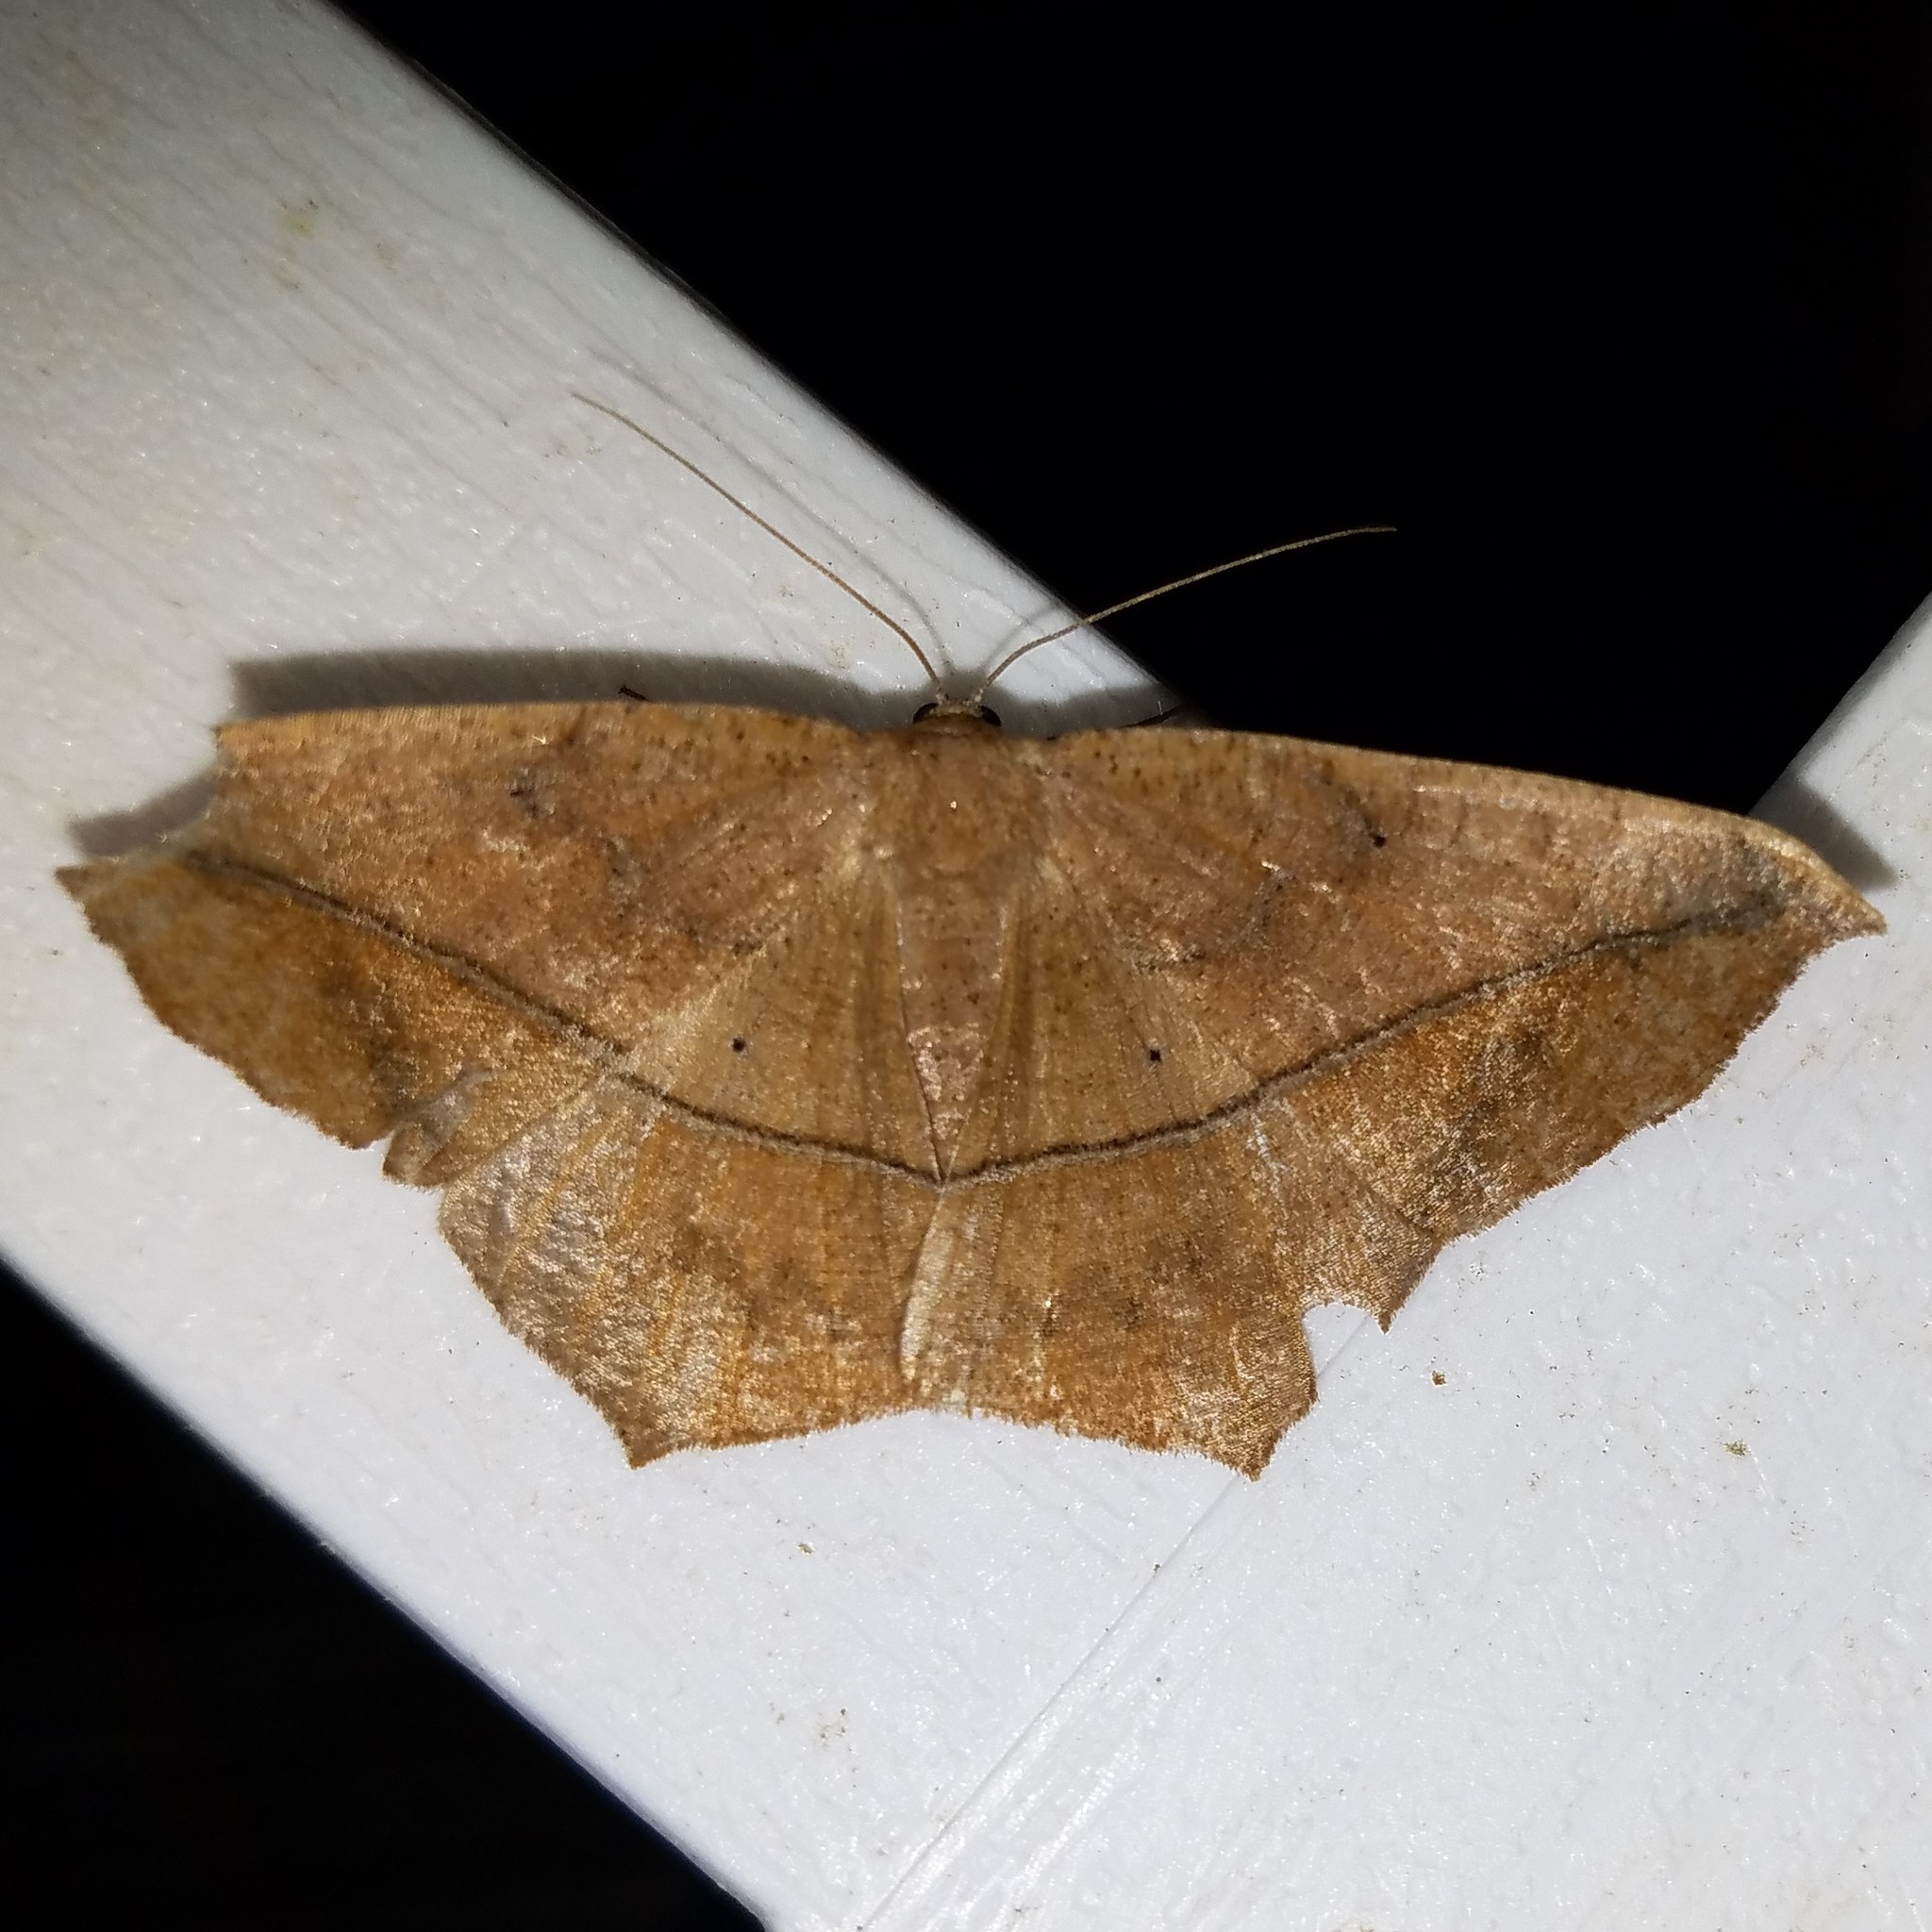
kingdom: Animalia
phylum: Arthropoda
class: Insecta
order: Lepidoptera
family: Geometridae
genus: Prochoerodes
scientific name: Prochoerodes lineola
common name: Large maple spanworm
